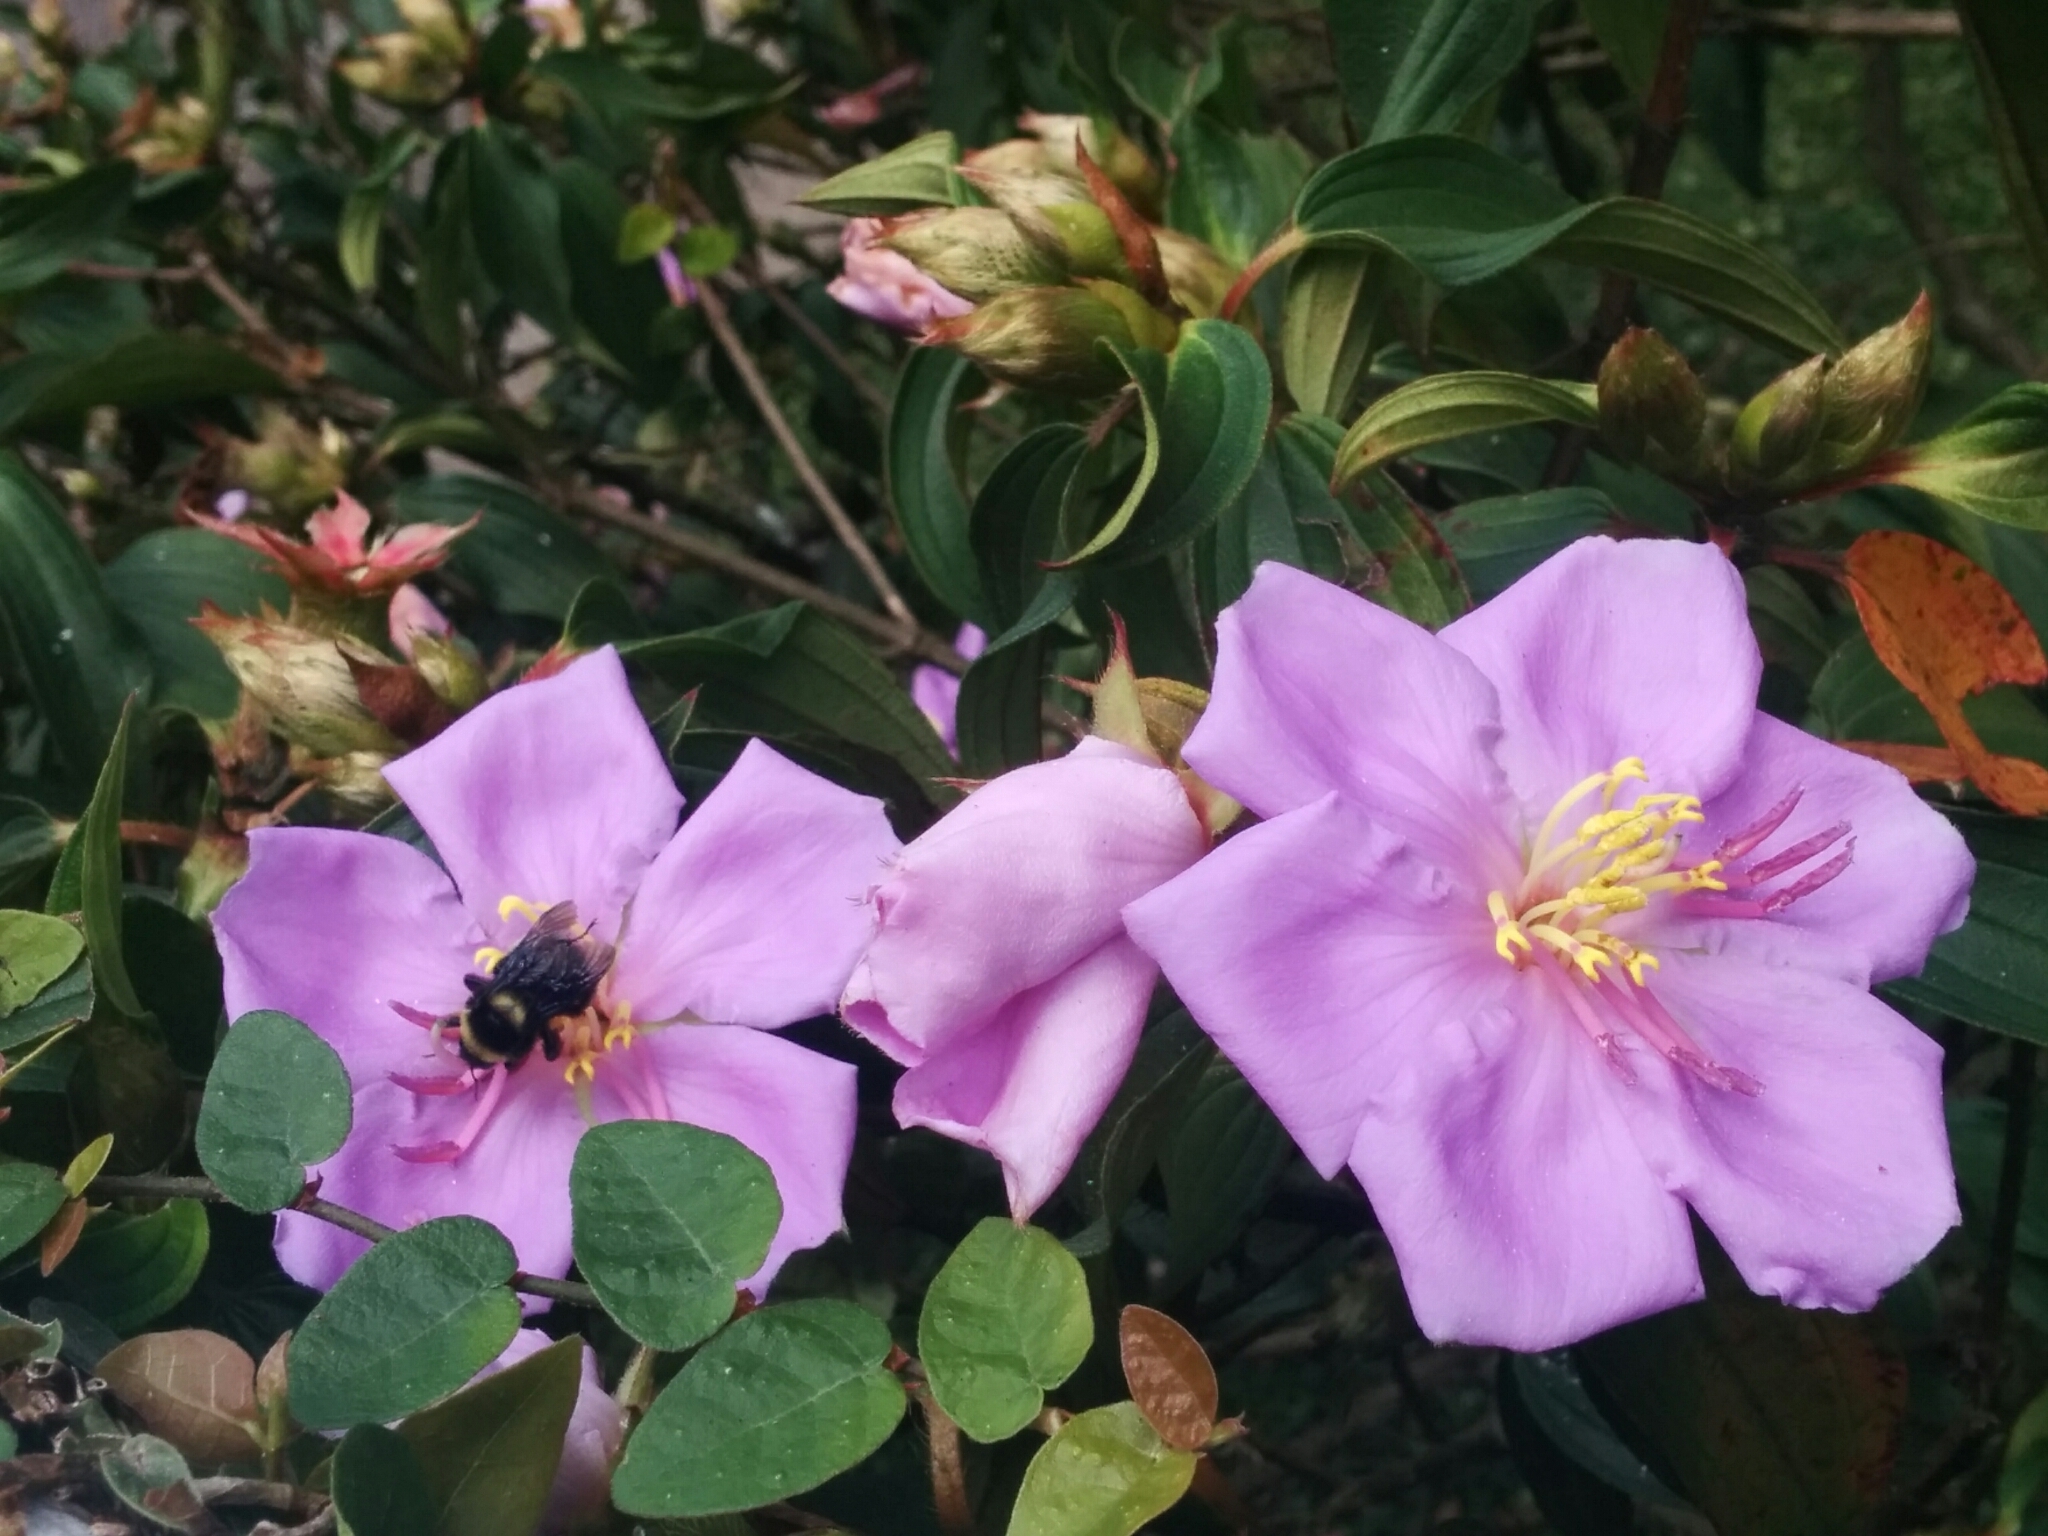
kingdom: Animalia
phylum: Arthropoda
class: Insecta
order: Hymenoptera
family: Apidae
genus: Bombus
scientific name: Bombus medius
